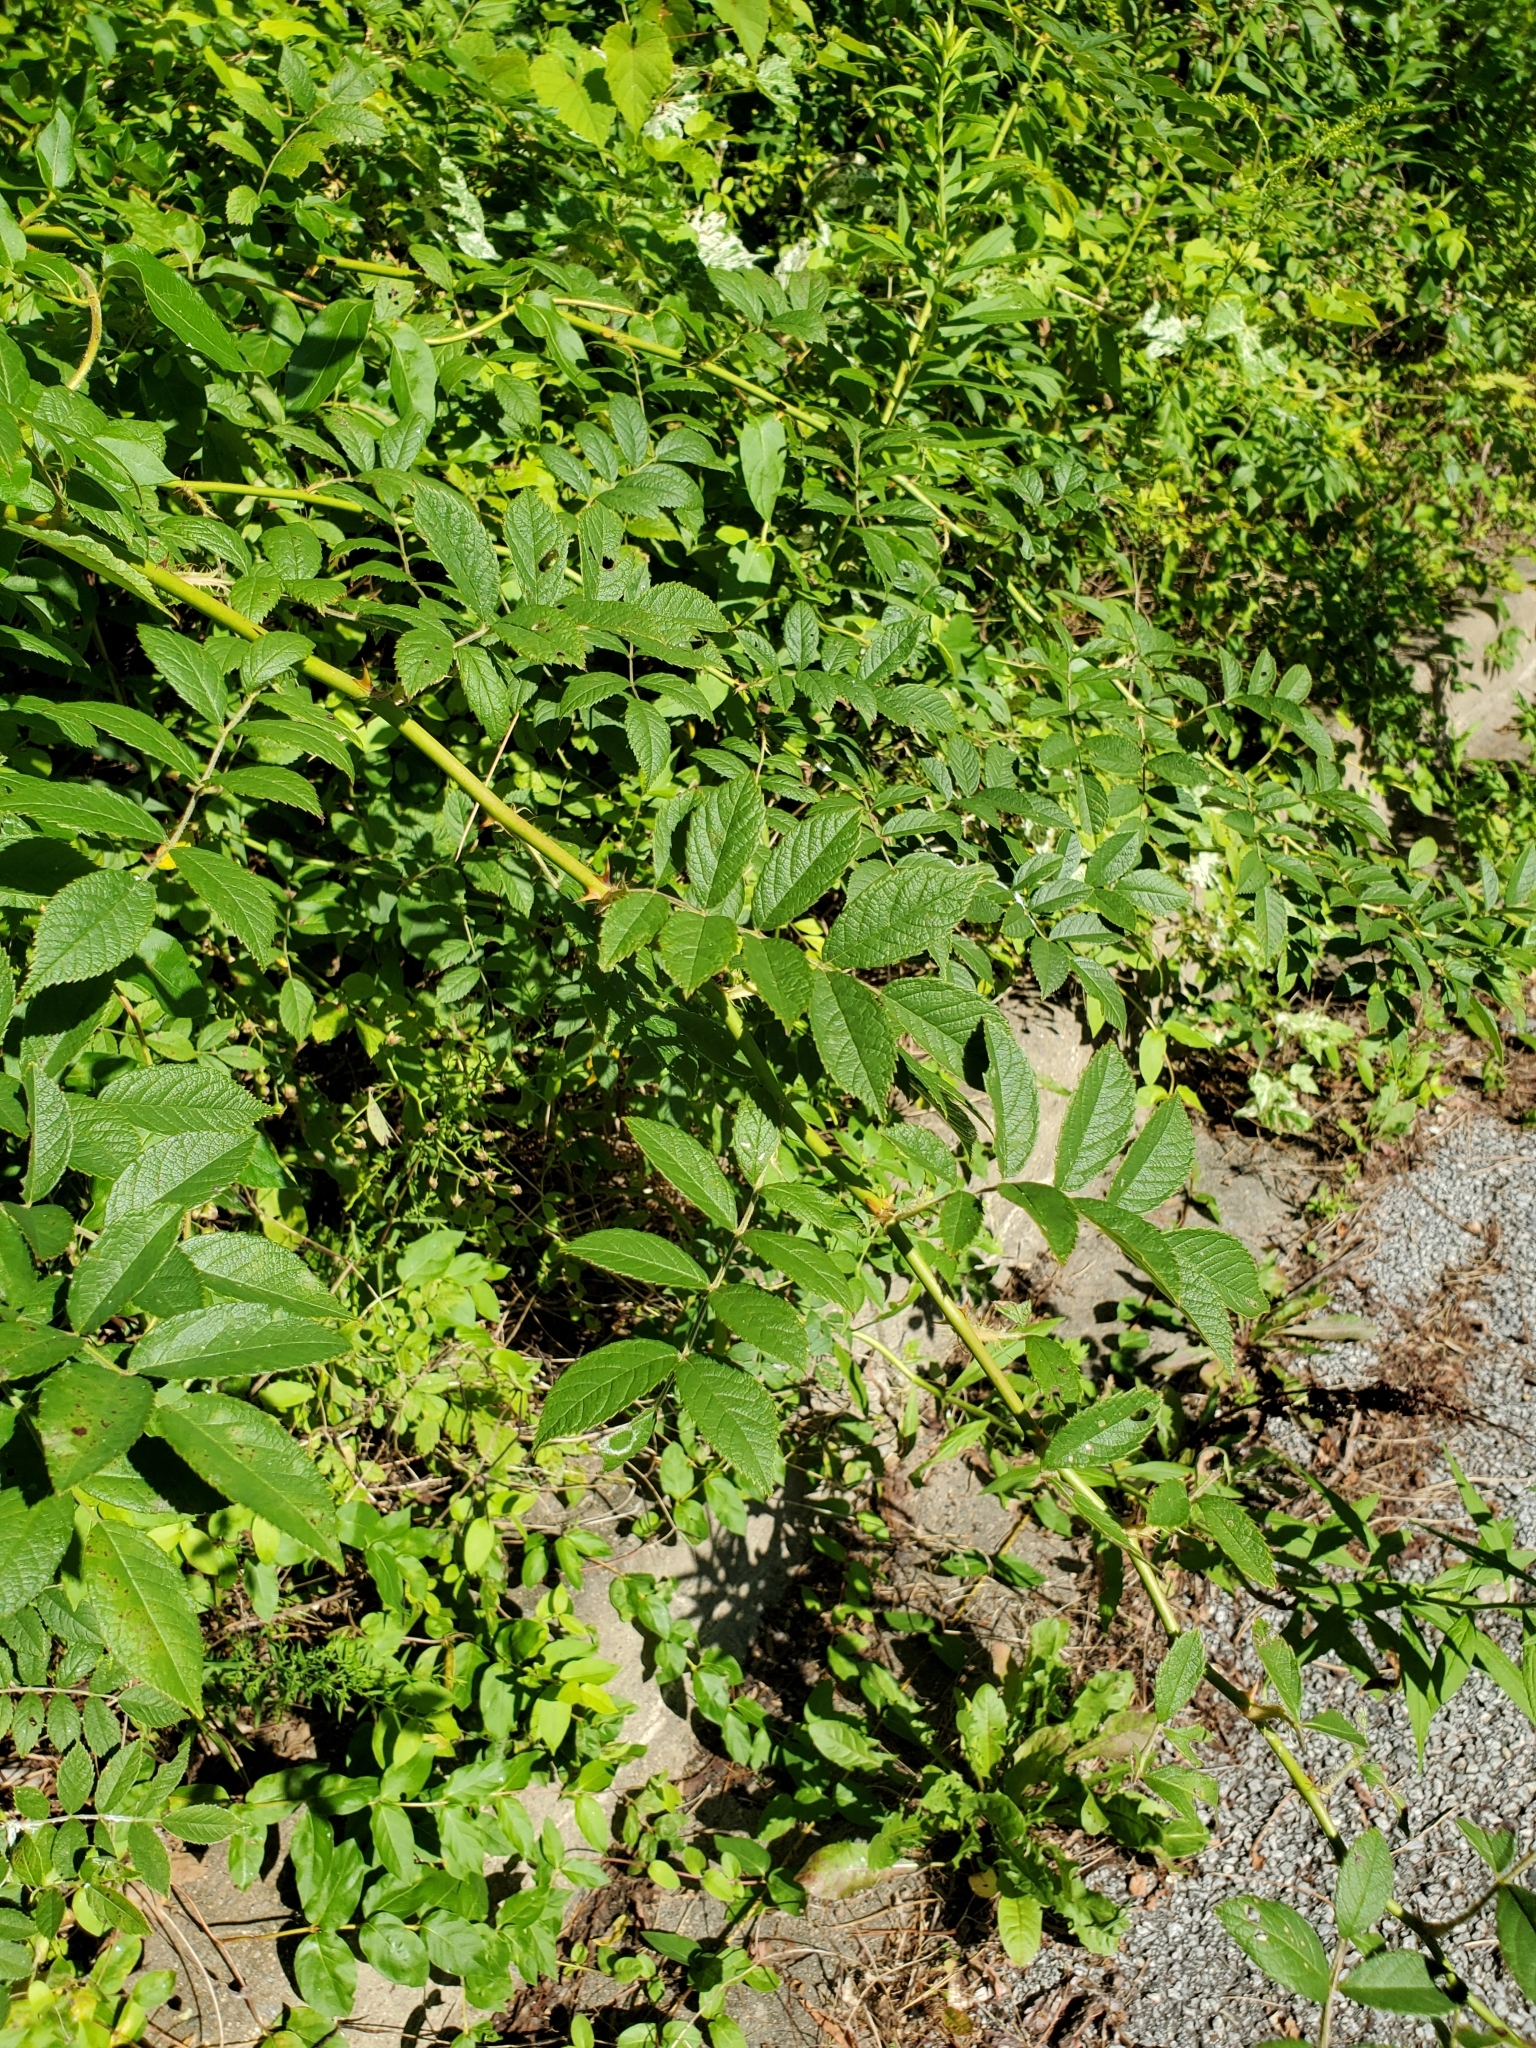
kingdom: Plantae
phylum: Tracheophyta
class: Magnoliopsida
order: Rosales
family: Rosaceae
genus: Rosa
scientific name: Rosa multiflora
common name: Multiflora rose
